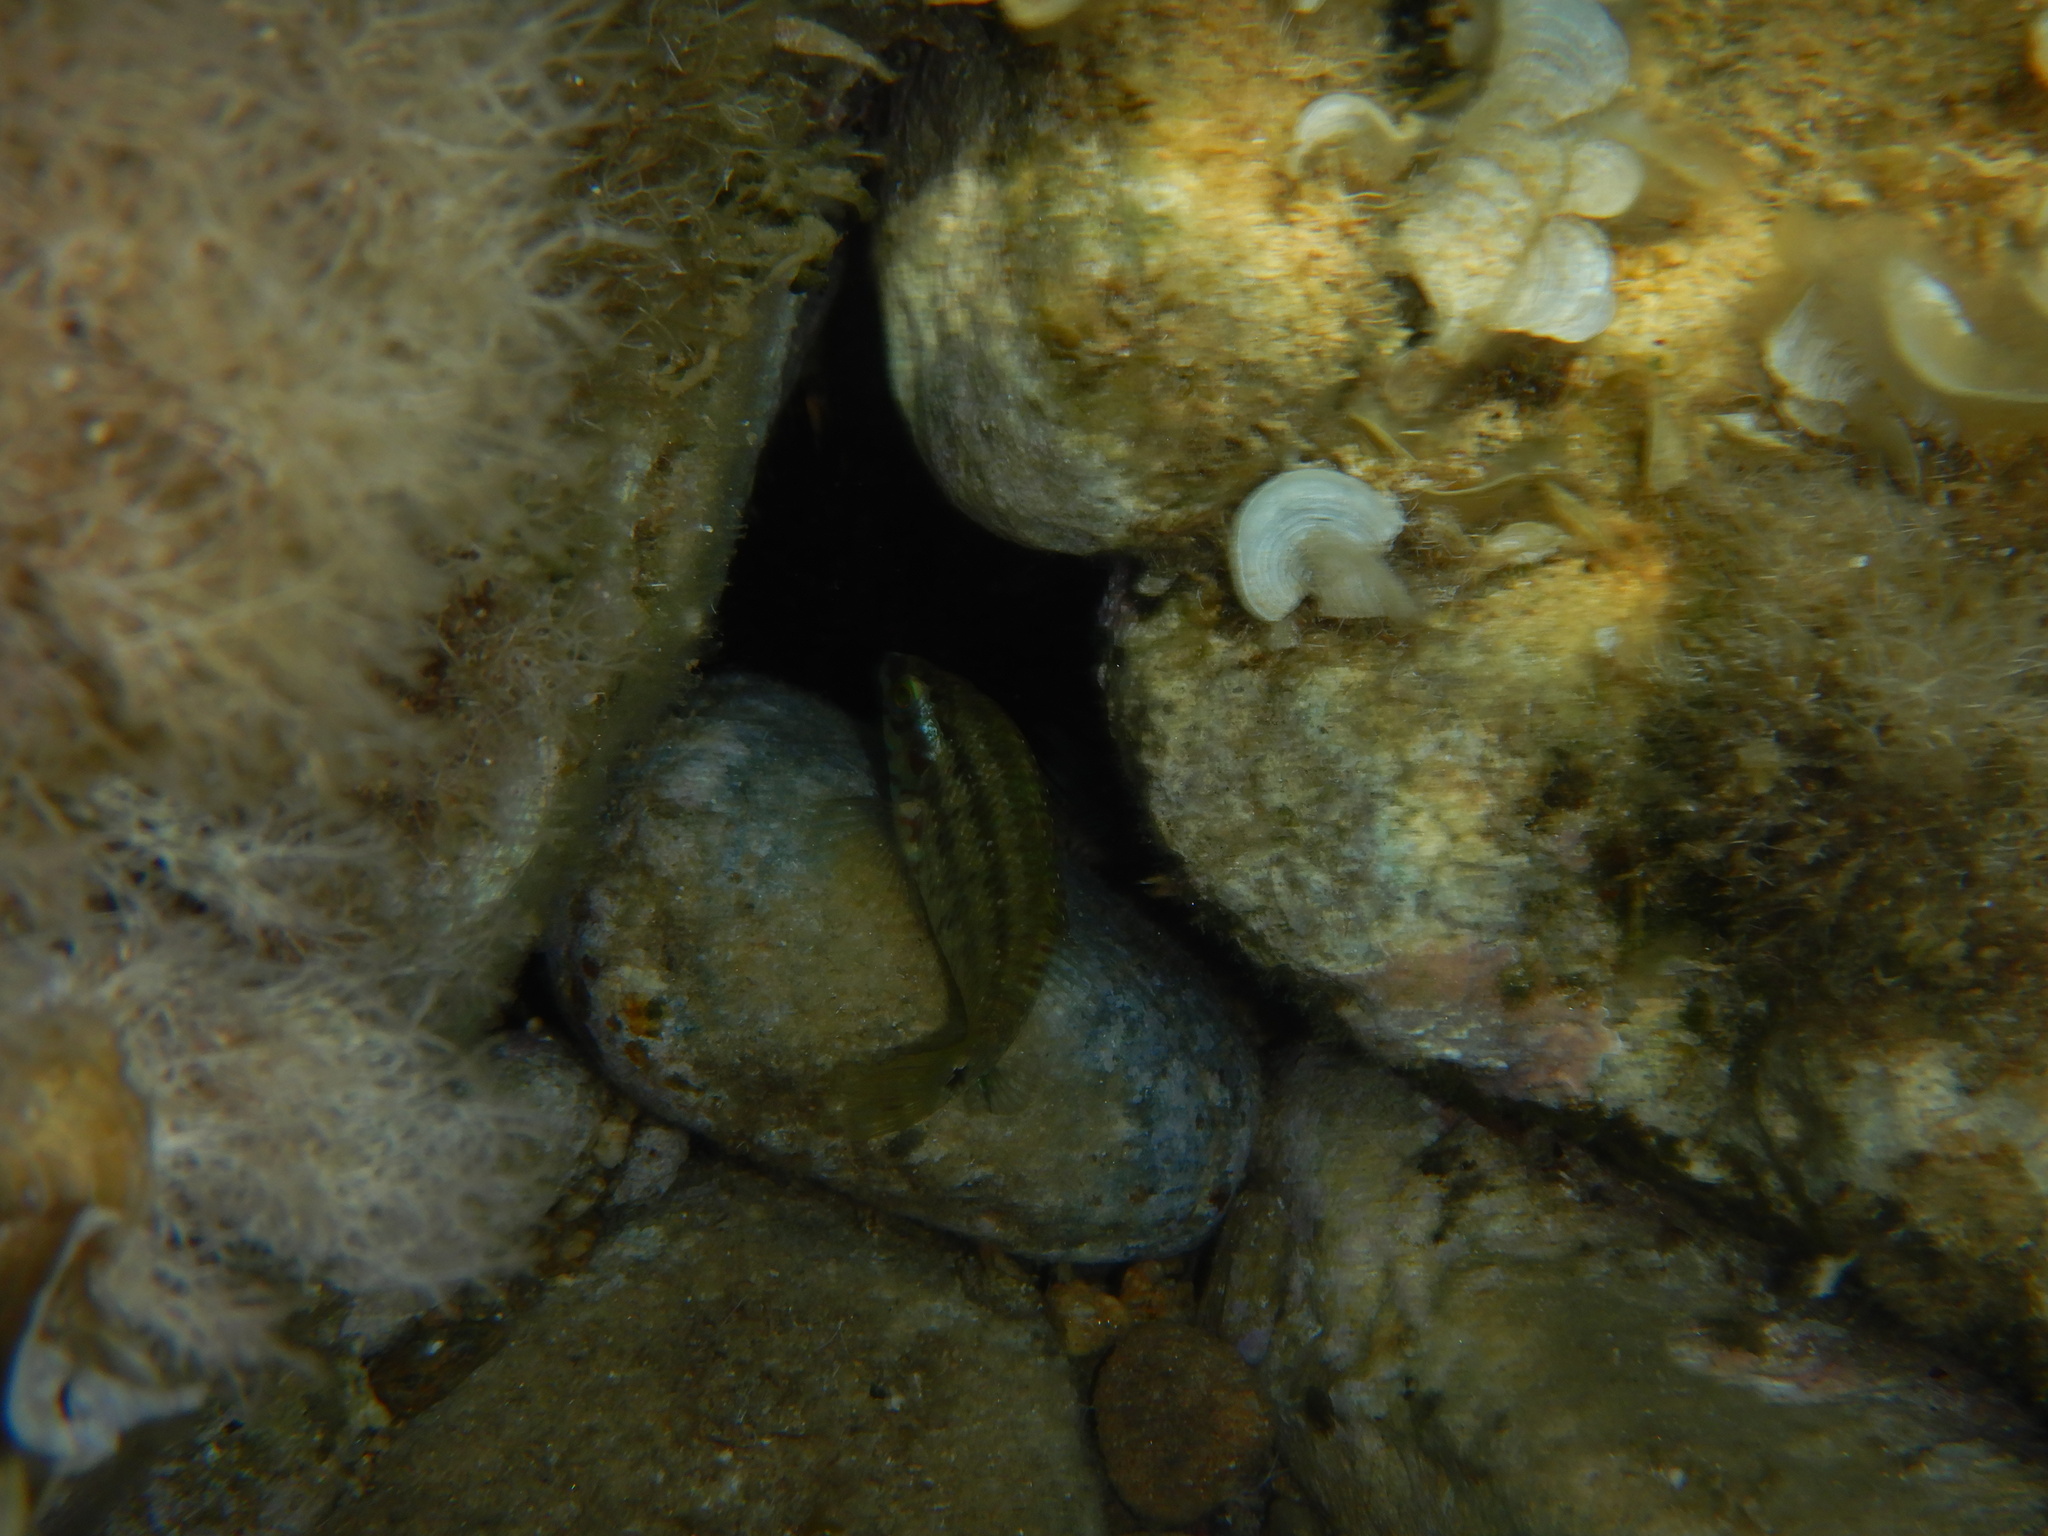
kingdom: Animalia
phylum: Chordata
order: Perciformes
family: Labridae
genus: Symphodus
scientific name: Symphodus roissali
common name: Five-spotted wrasse
